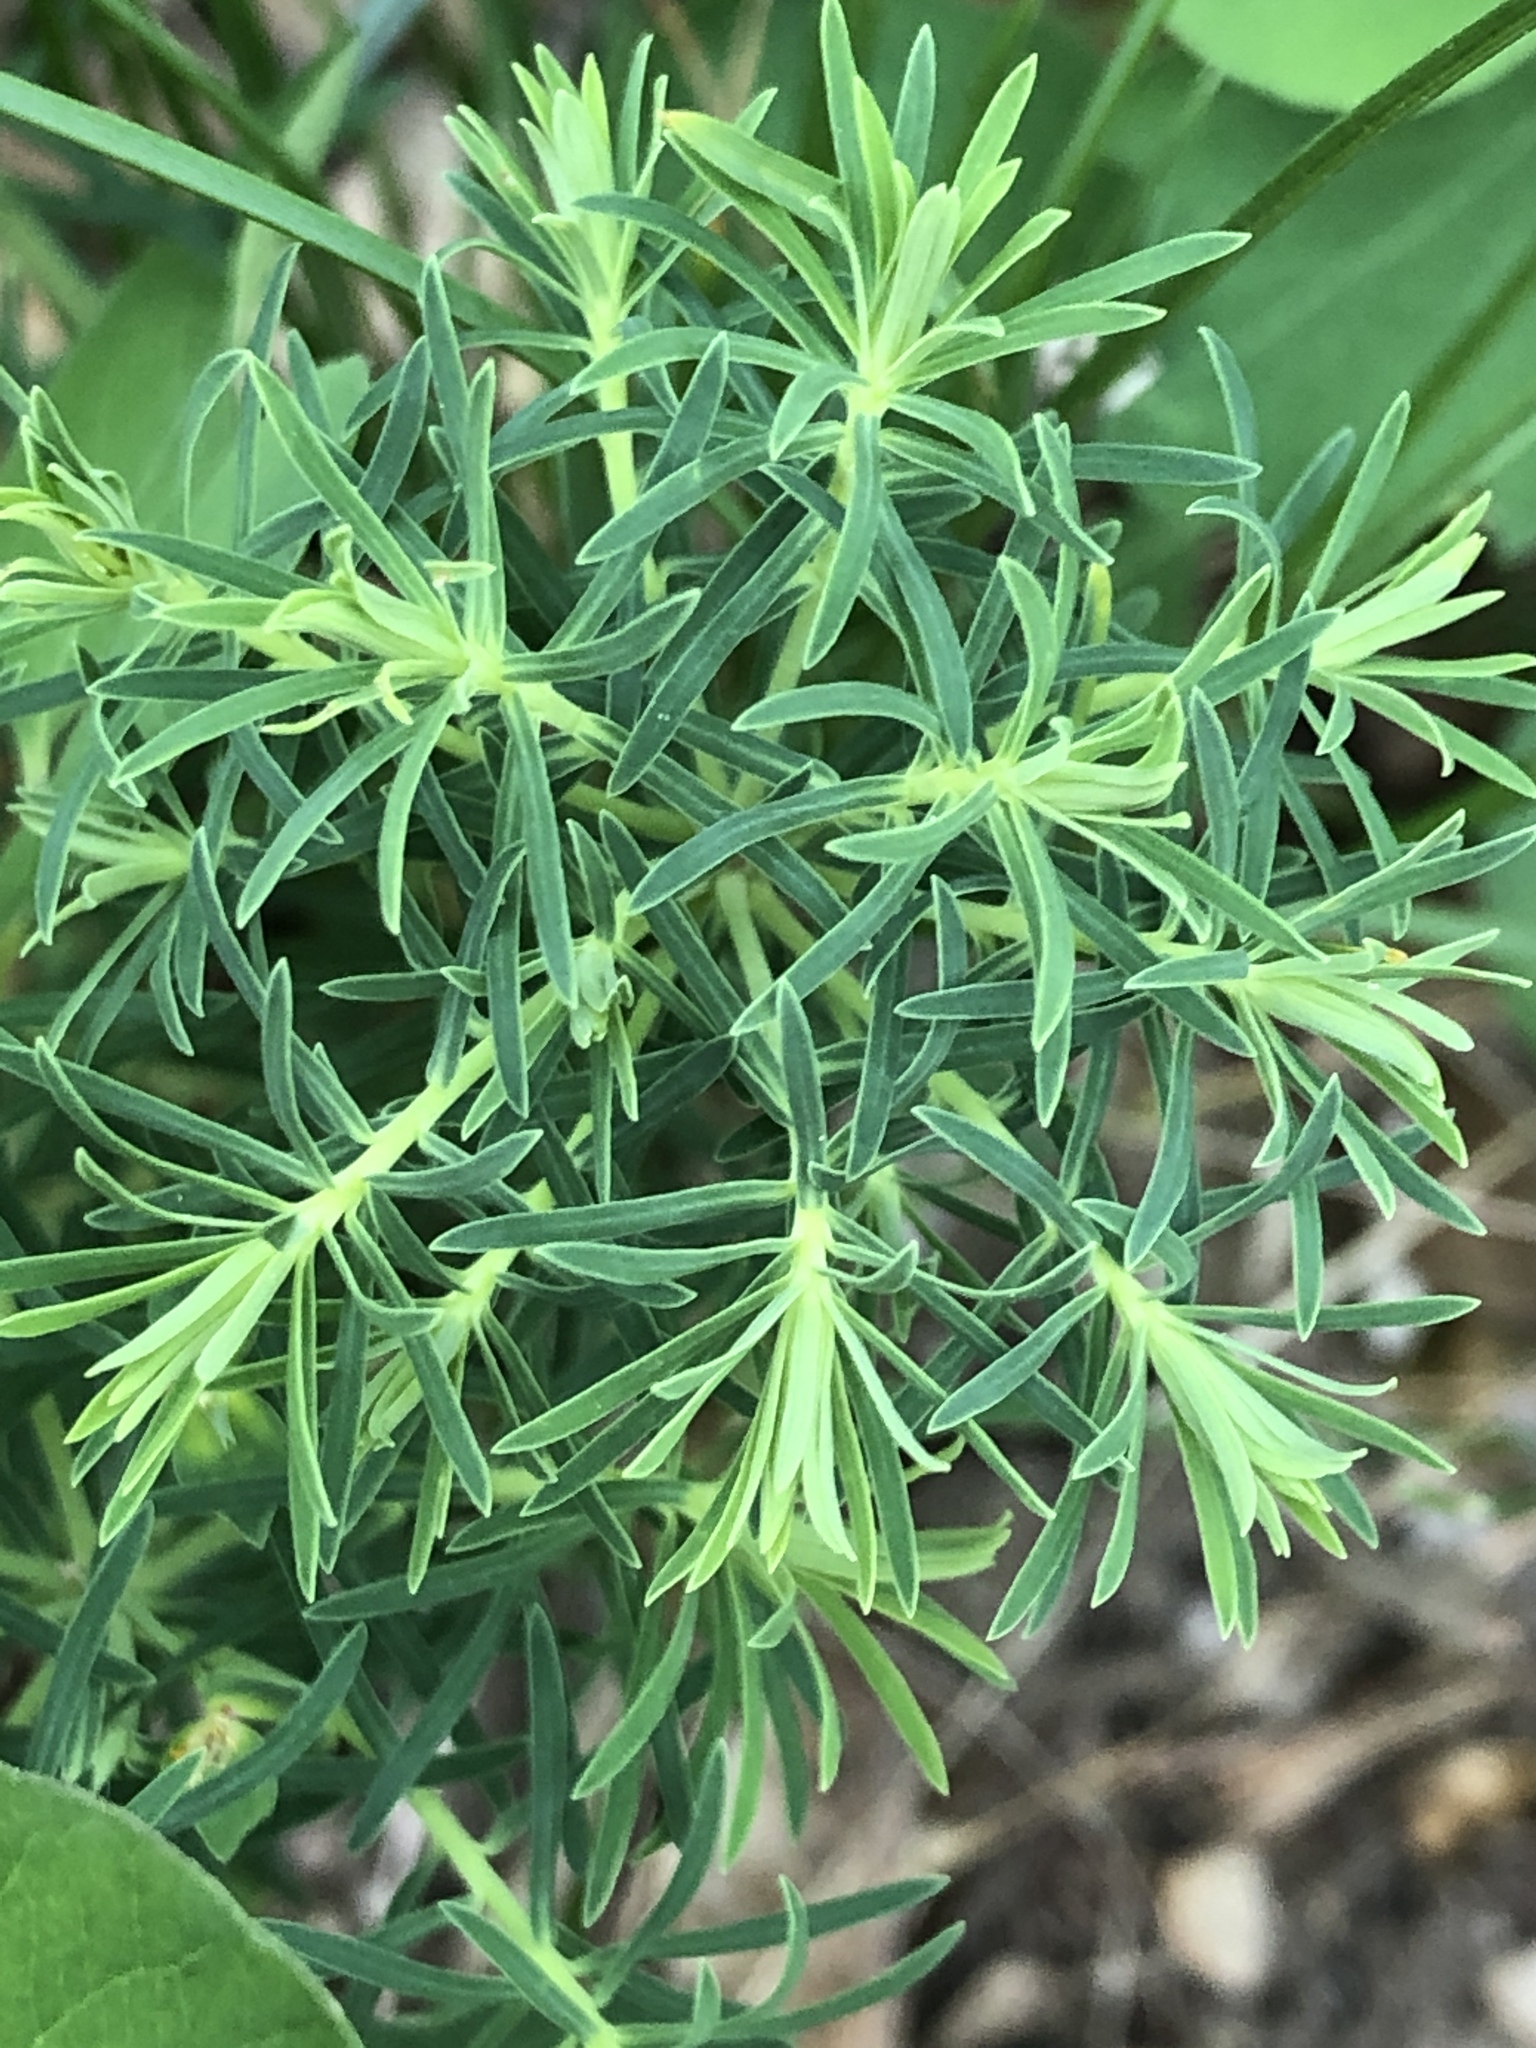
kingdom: Plantae
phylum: Tracheophyta
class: Magnoliopsida
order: Malpighiales
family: Euphorbiaceae
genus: Euphorbia
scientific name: Euphorbia cyparissias
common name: Cypress spurge
